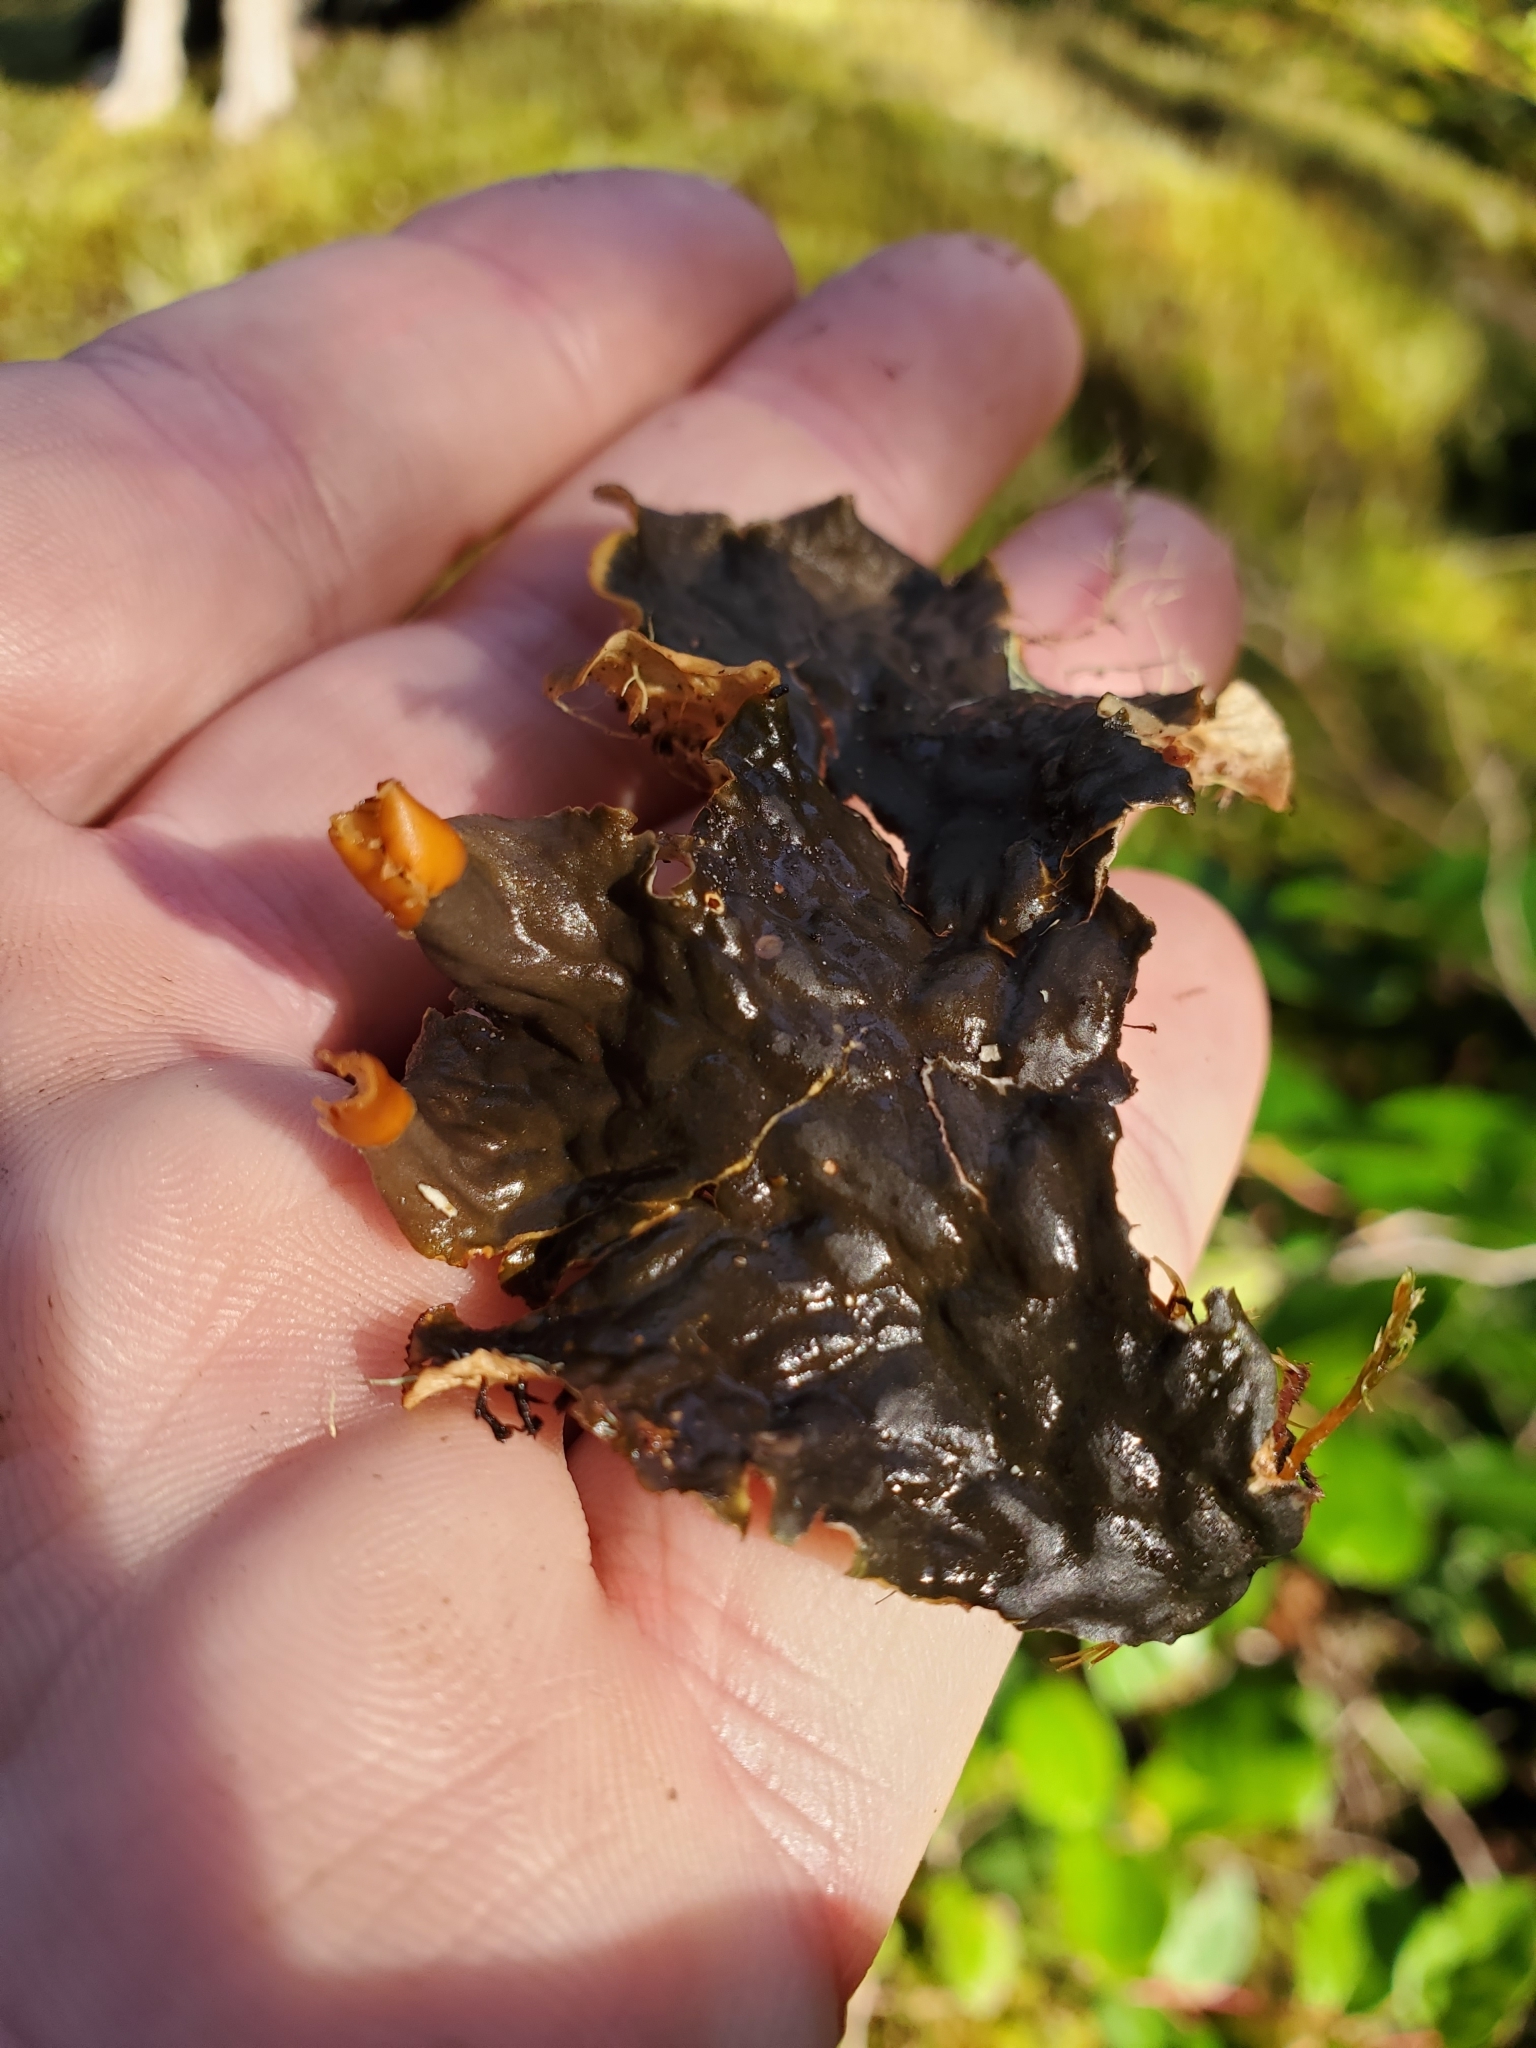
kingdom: Fungi
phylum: Ascomycota
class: Lecanoromycetes
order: Peltigerales
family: Peltigeraceae
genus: Peltigera
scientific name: Peltigera membranacea
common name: Membranous pelt lichen
